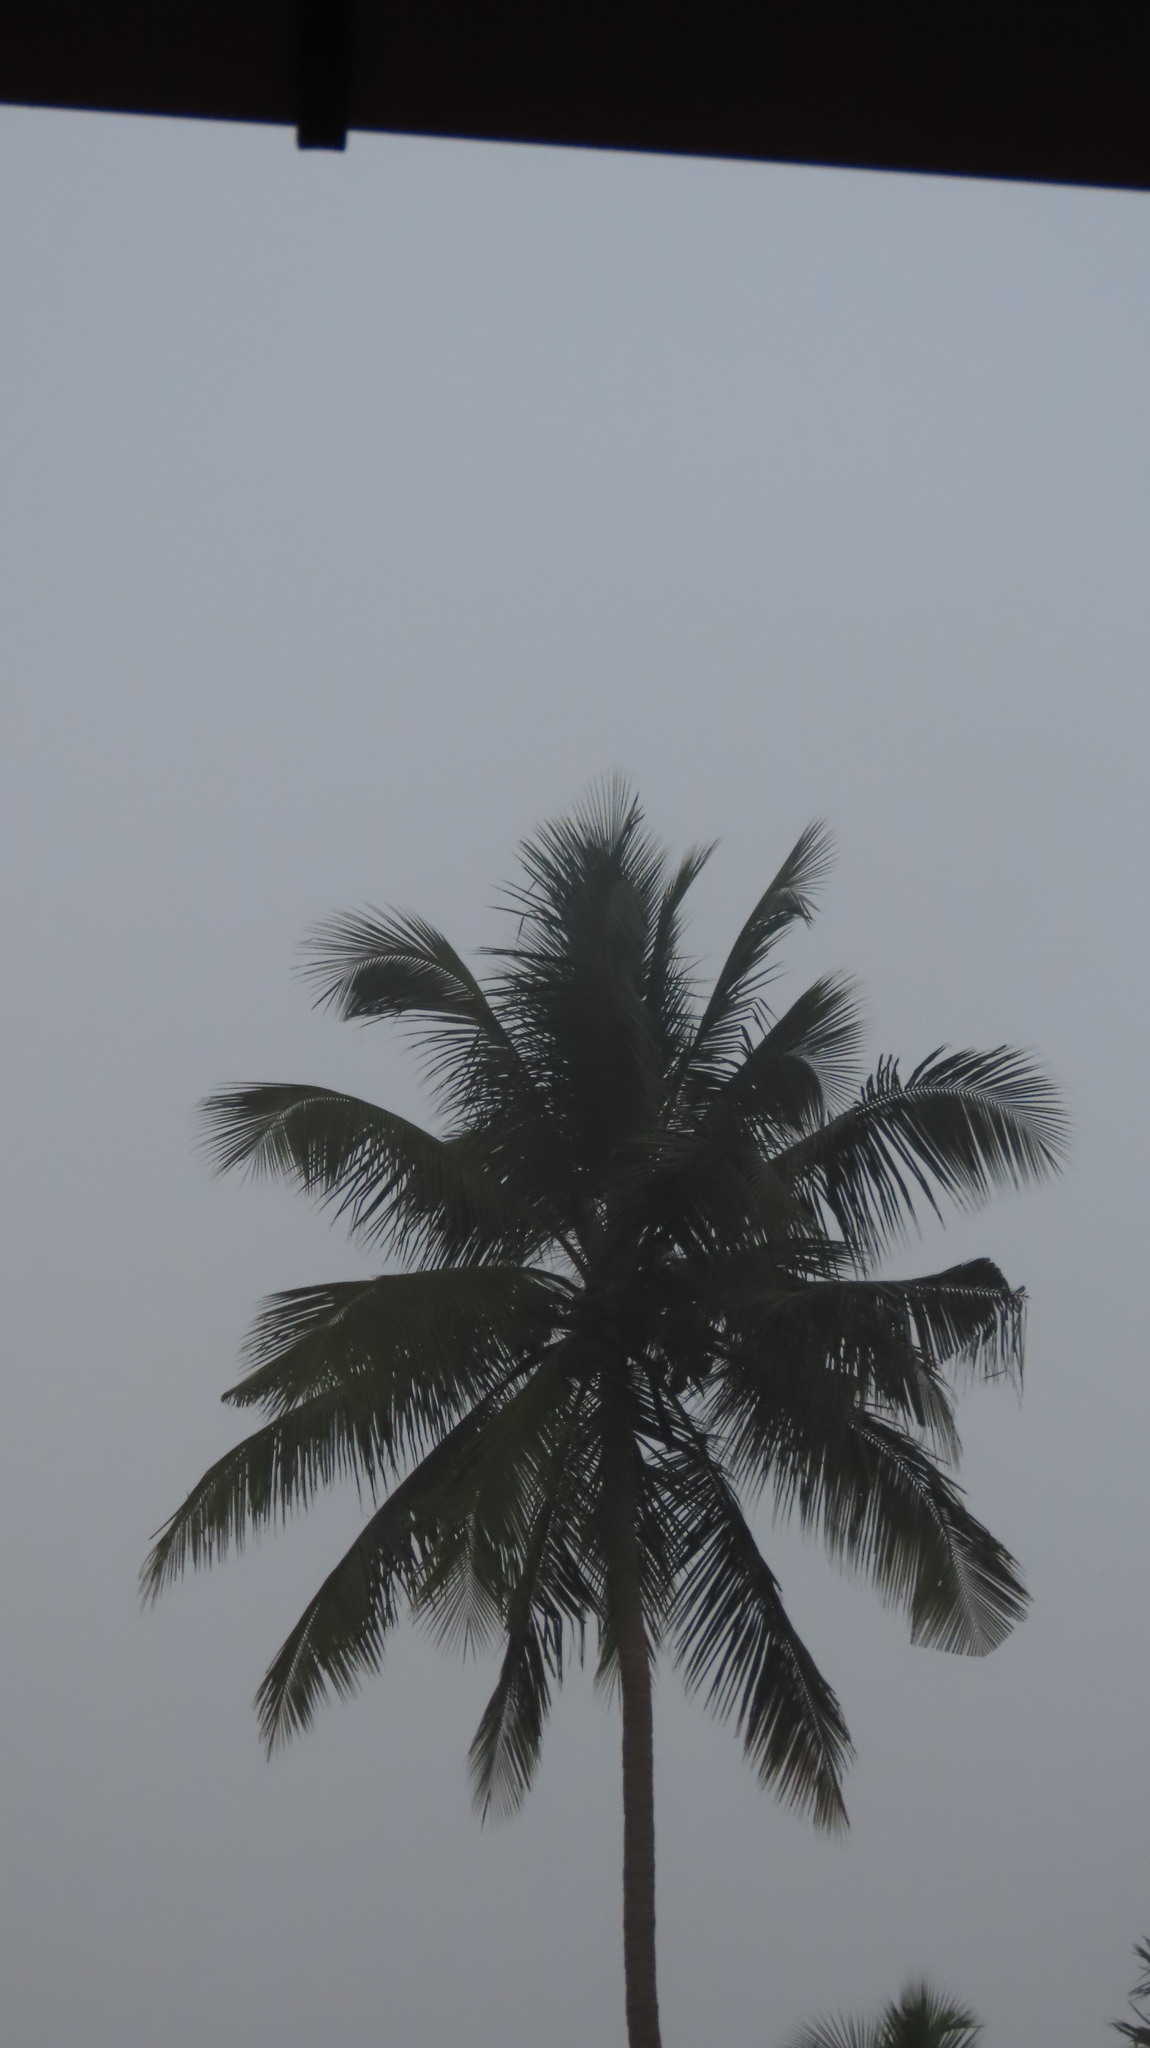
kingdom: Plantae
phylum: Tracheophyta
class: Liliopsida
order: Arecales
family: Arecaceae
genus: Cocos
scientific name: Cocos nucifera
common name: Coconut palm
